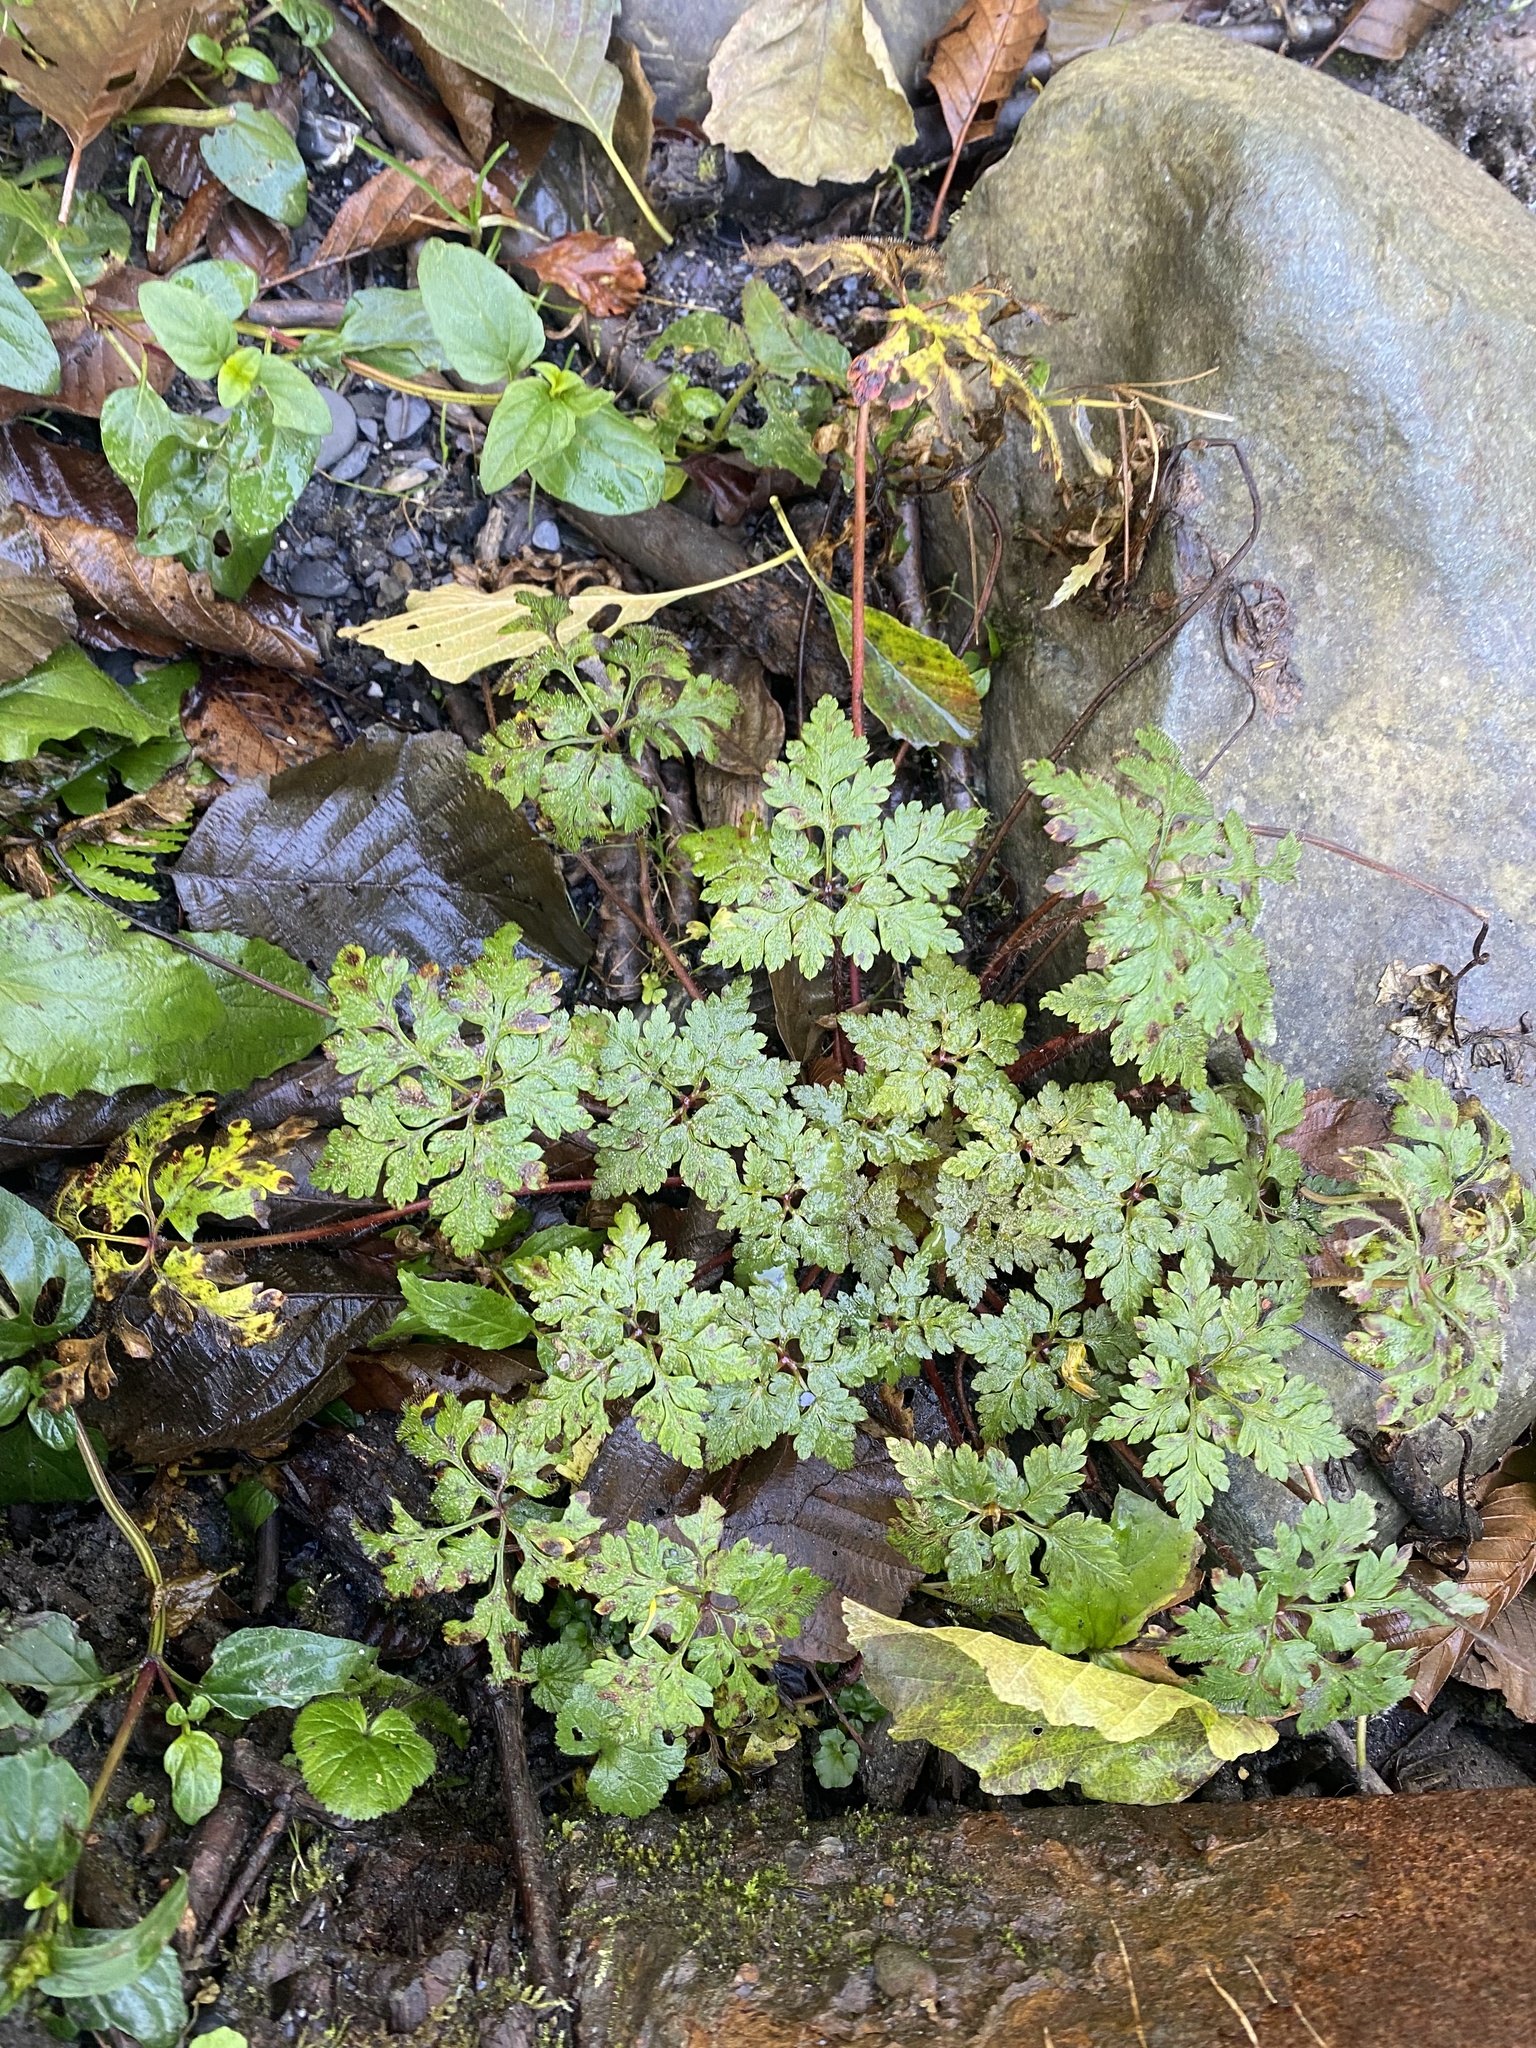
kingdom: Plantae
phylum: Tracheophyta
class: Magnoliopsida
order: Geraniales
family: Geraniaceae
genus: Geranium
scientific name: Geranium robertianum
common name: Herb-robert
